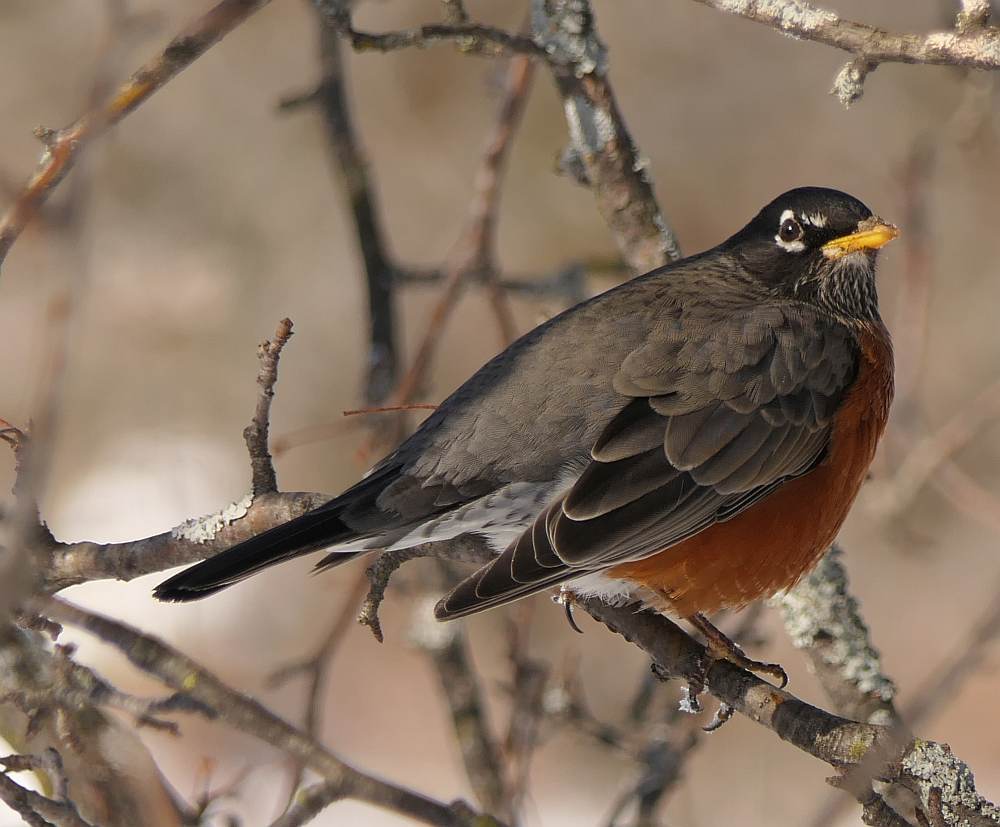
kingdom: Animalia
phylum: Chordata
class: Aves
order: Passeriformes
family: Turdidae
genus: Turdus
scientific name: Turdus migratorius
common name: American robin
